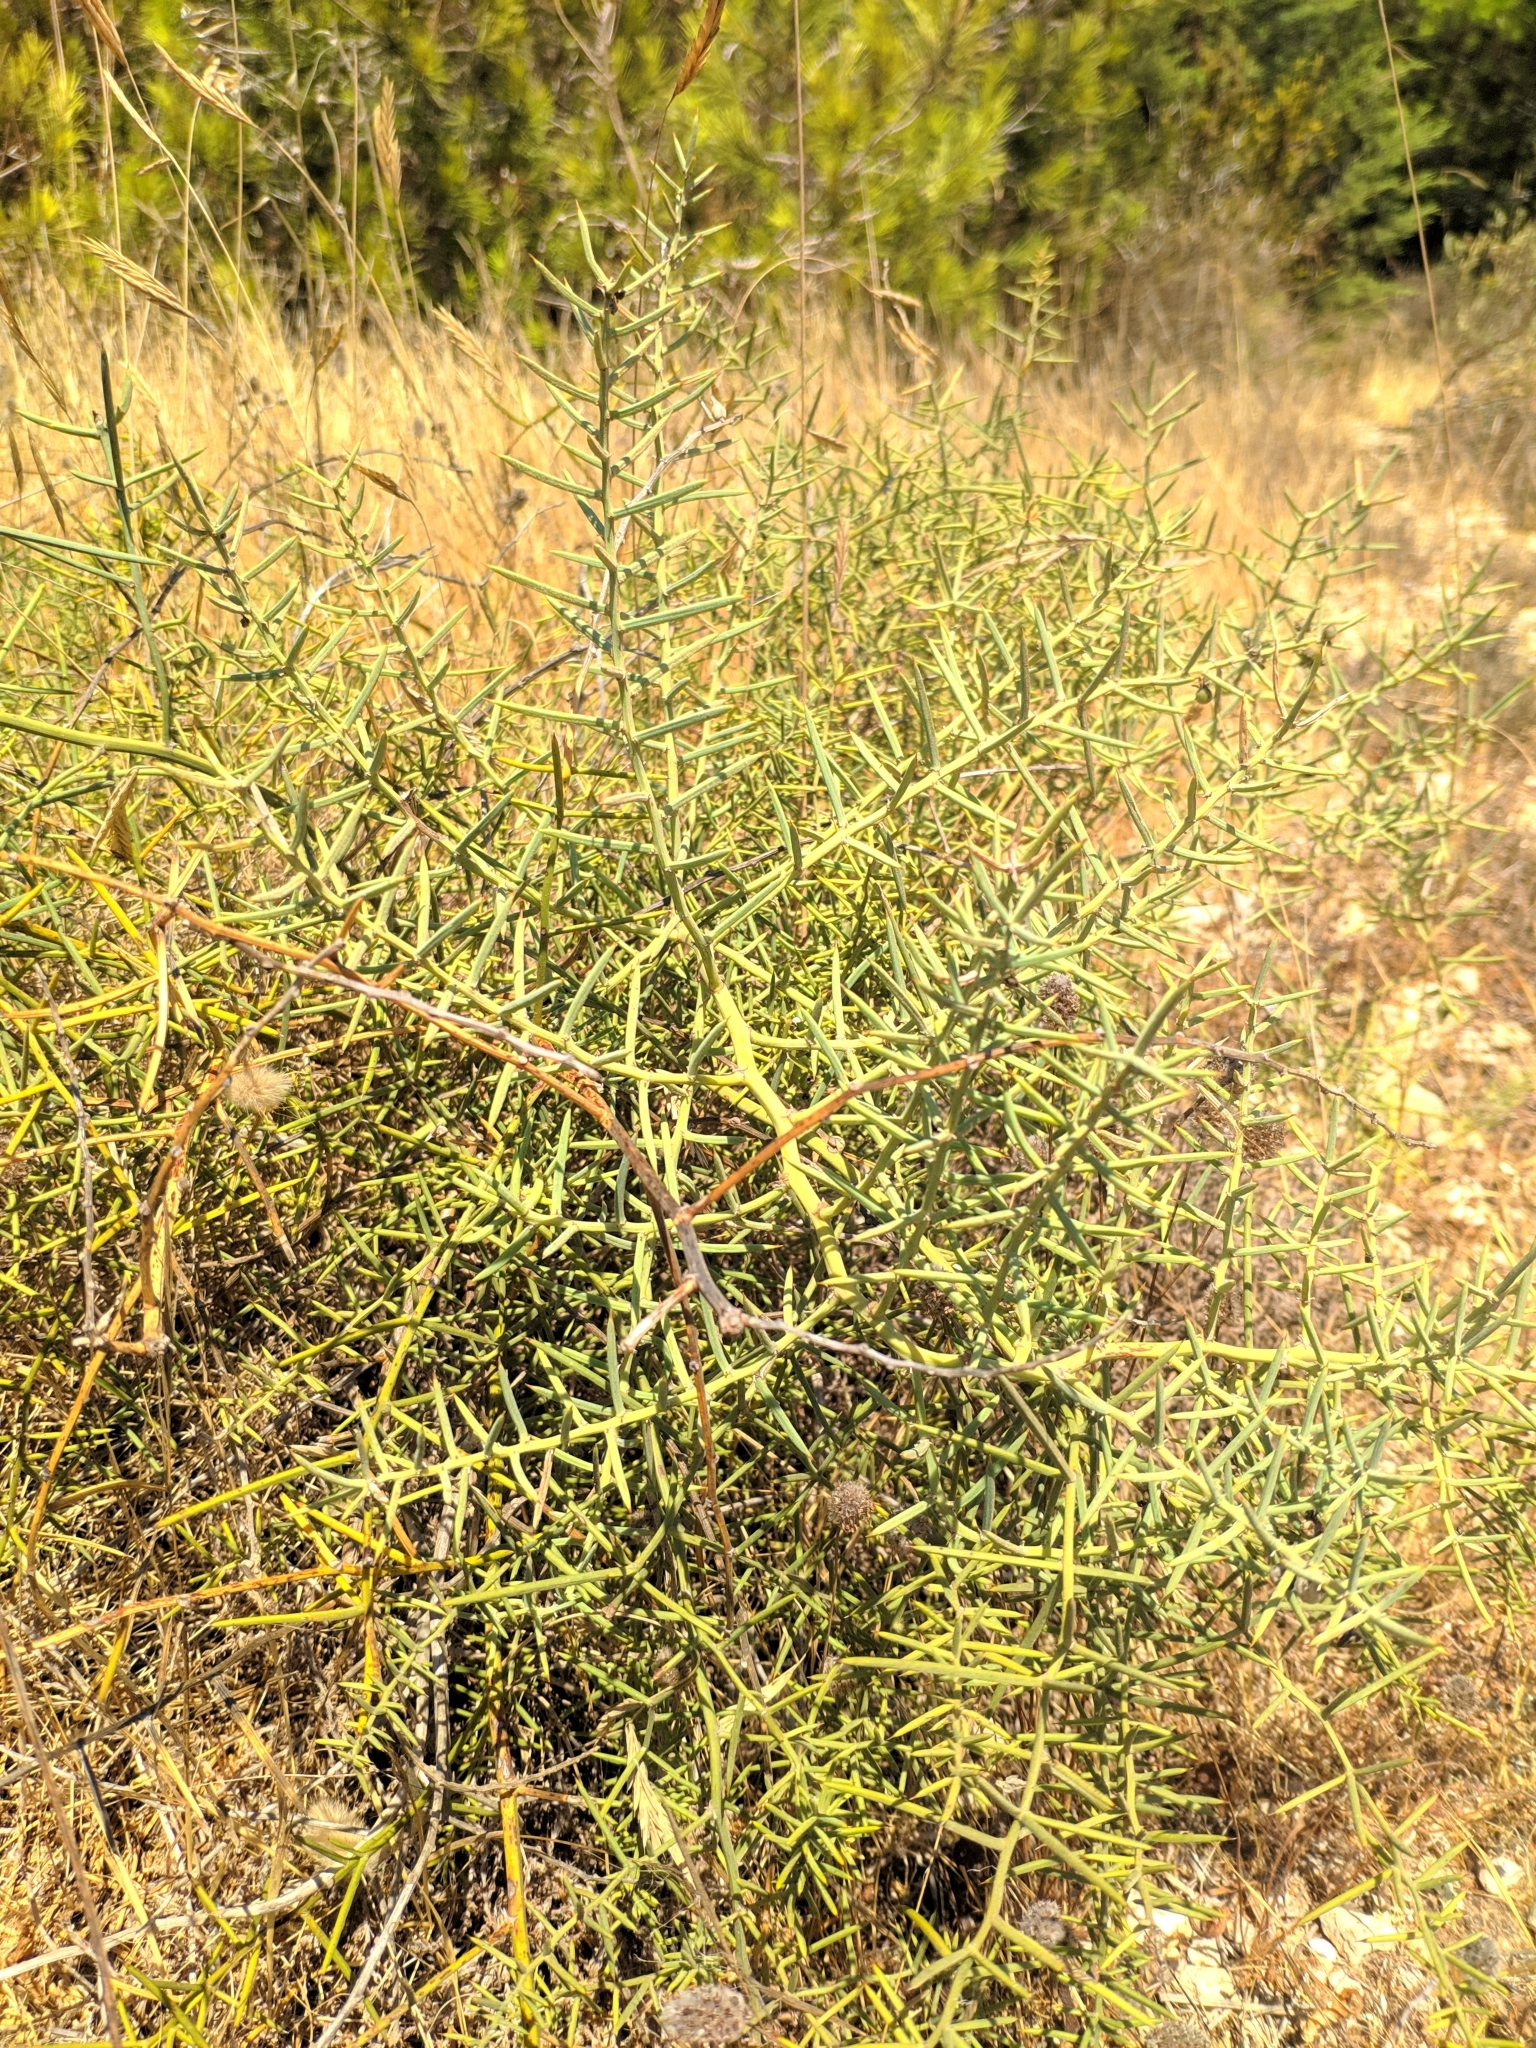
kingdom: Plantae
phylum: Tracheophyta
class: Liliopsida
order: Asparagales
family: Asparagaceae
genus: Asparagus
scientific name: Asparagus horridus
